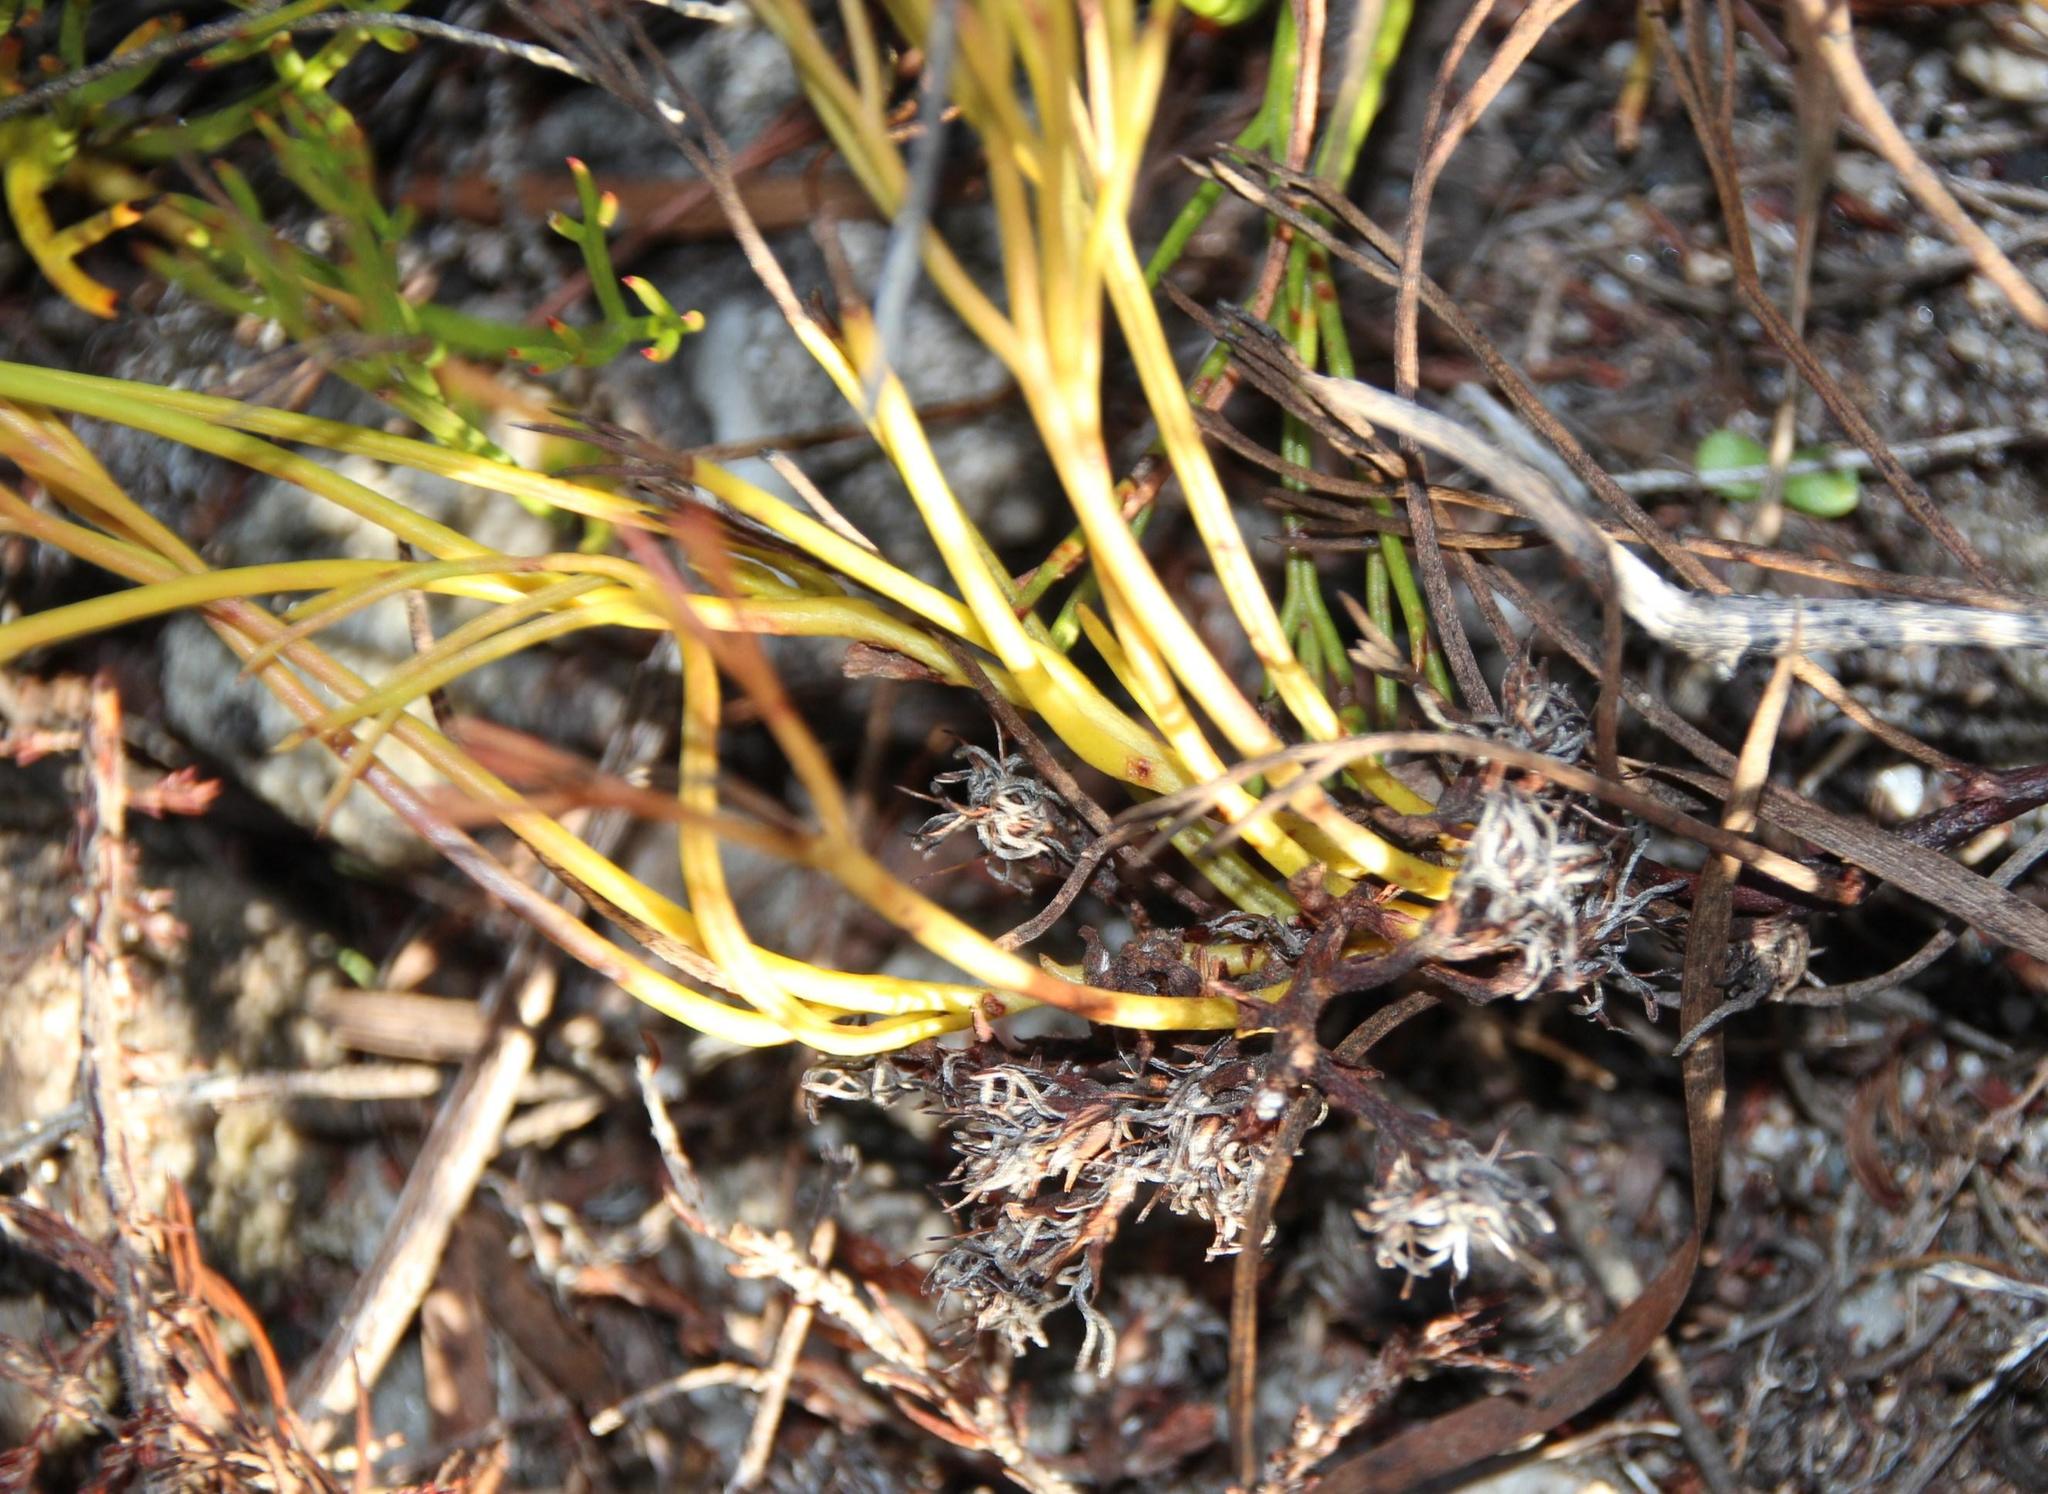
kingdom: Plantae
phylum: Tracheophyta
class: Magnoliopsida
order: Proteales
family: Proteaceae
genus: Serruria
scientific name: Serruria rubricaulis
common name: Red-stem spiderhead
